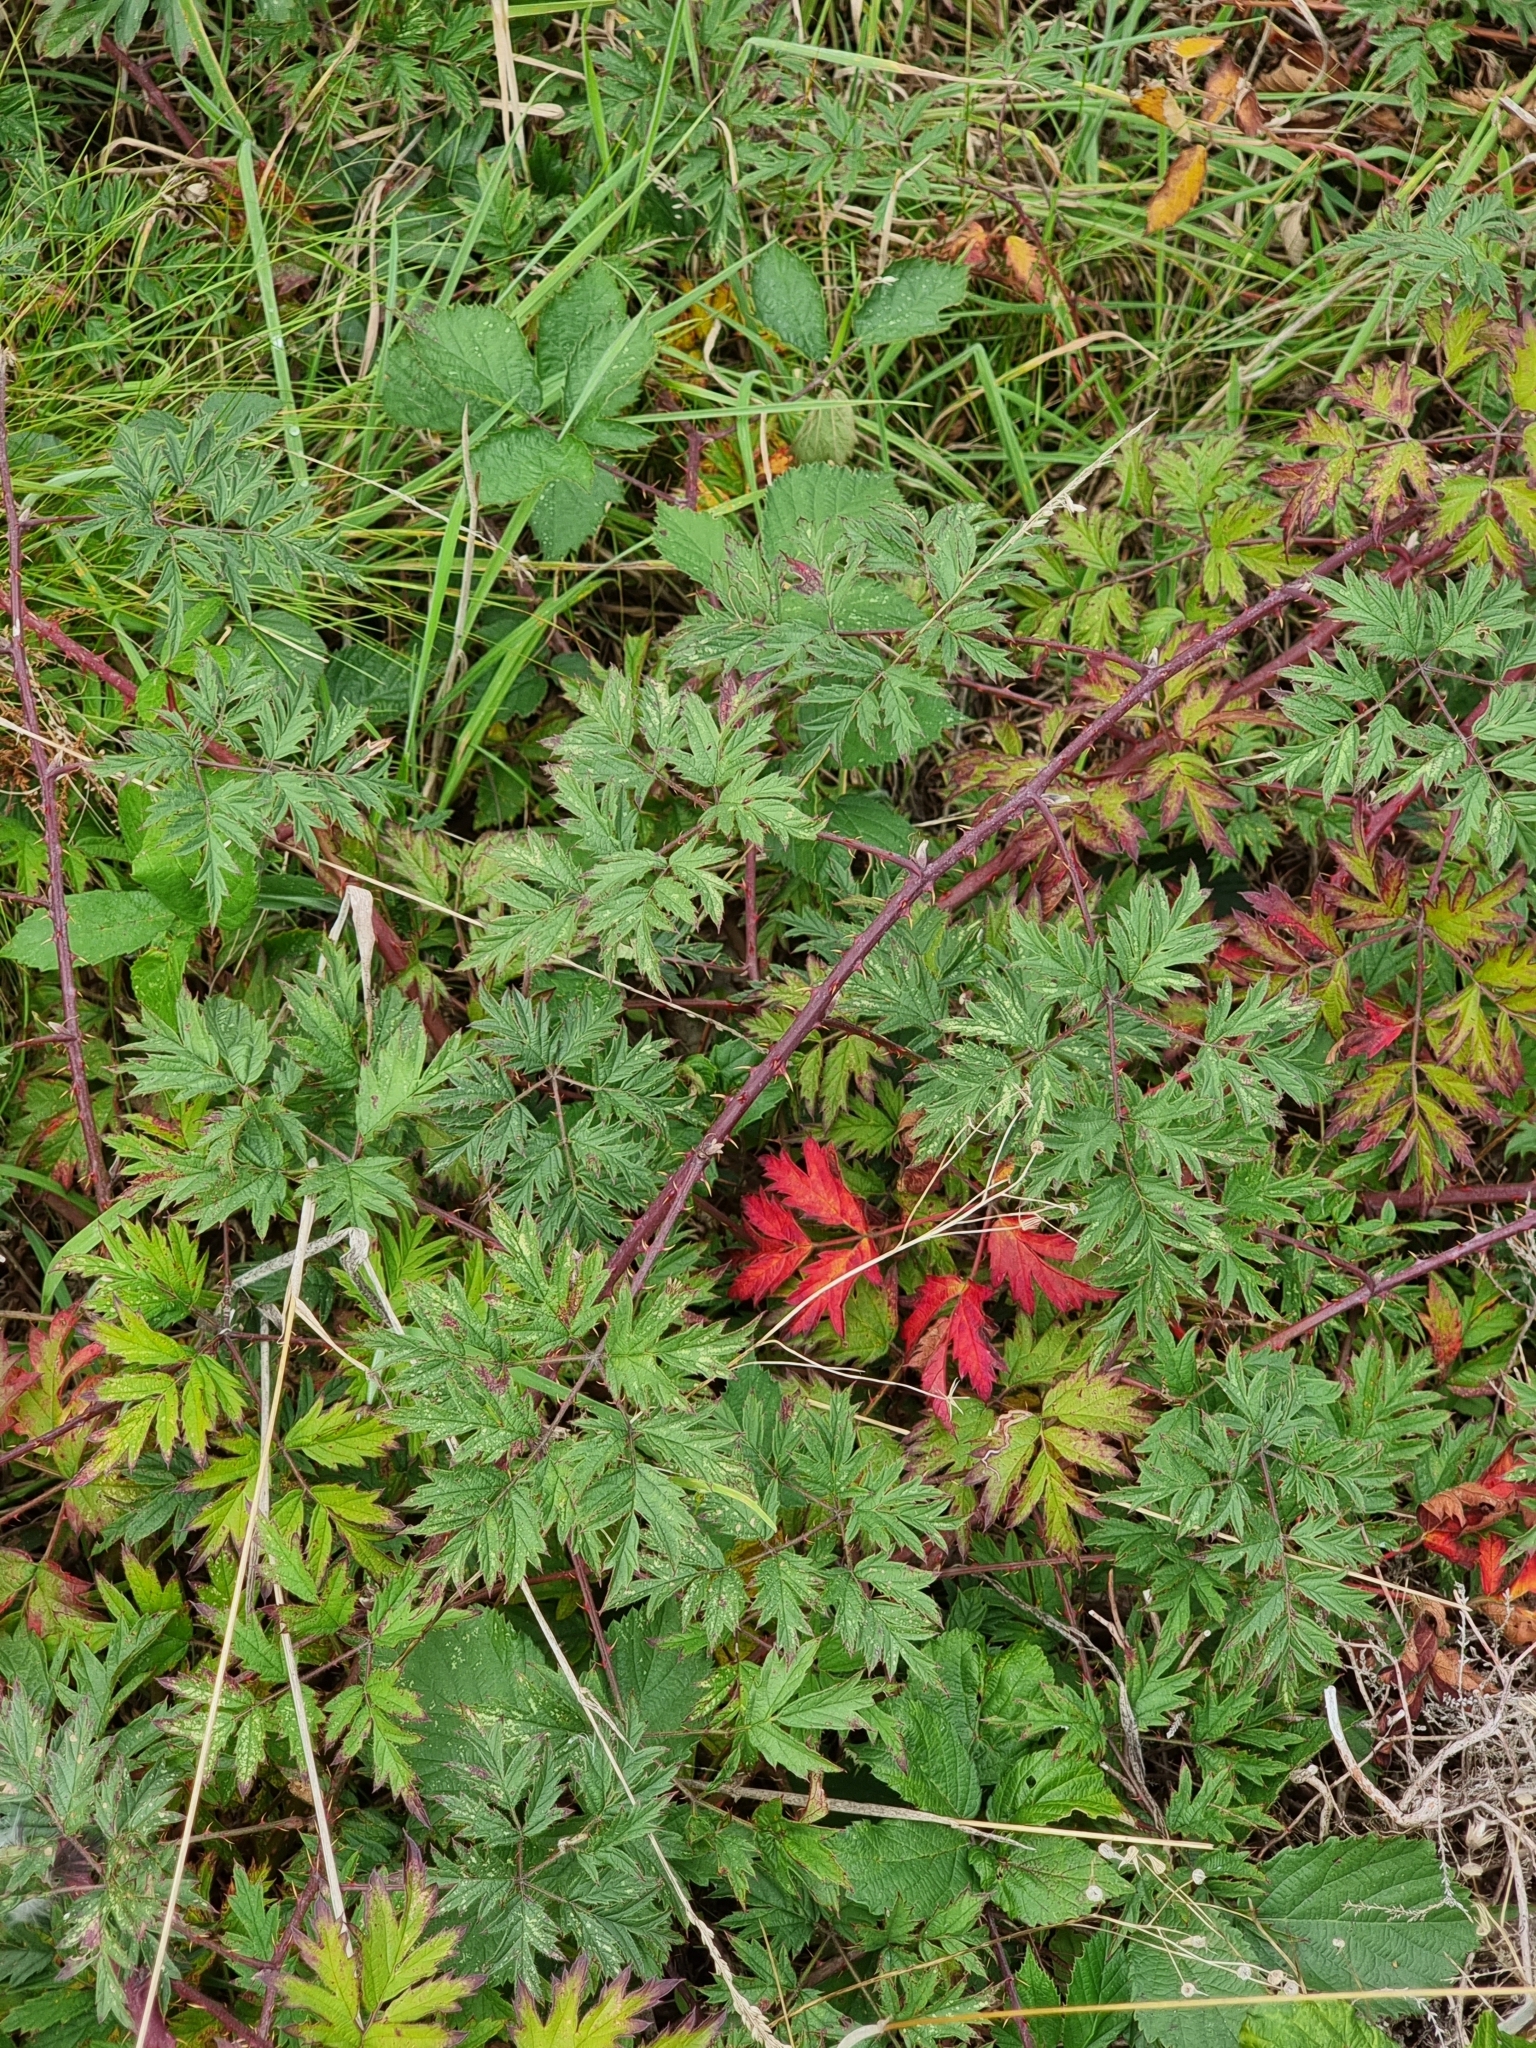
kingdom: Plantae
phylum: Tracheophyta
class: Magnoliopsida
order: Rosales
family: Rosaceae
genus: Rubus
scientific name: Rubus laciniatus
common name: Evergreen blackberry
